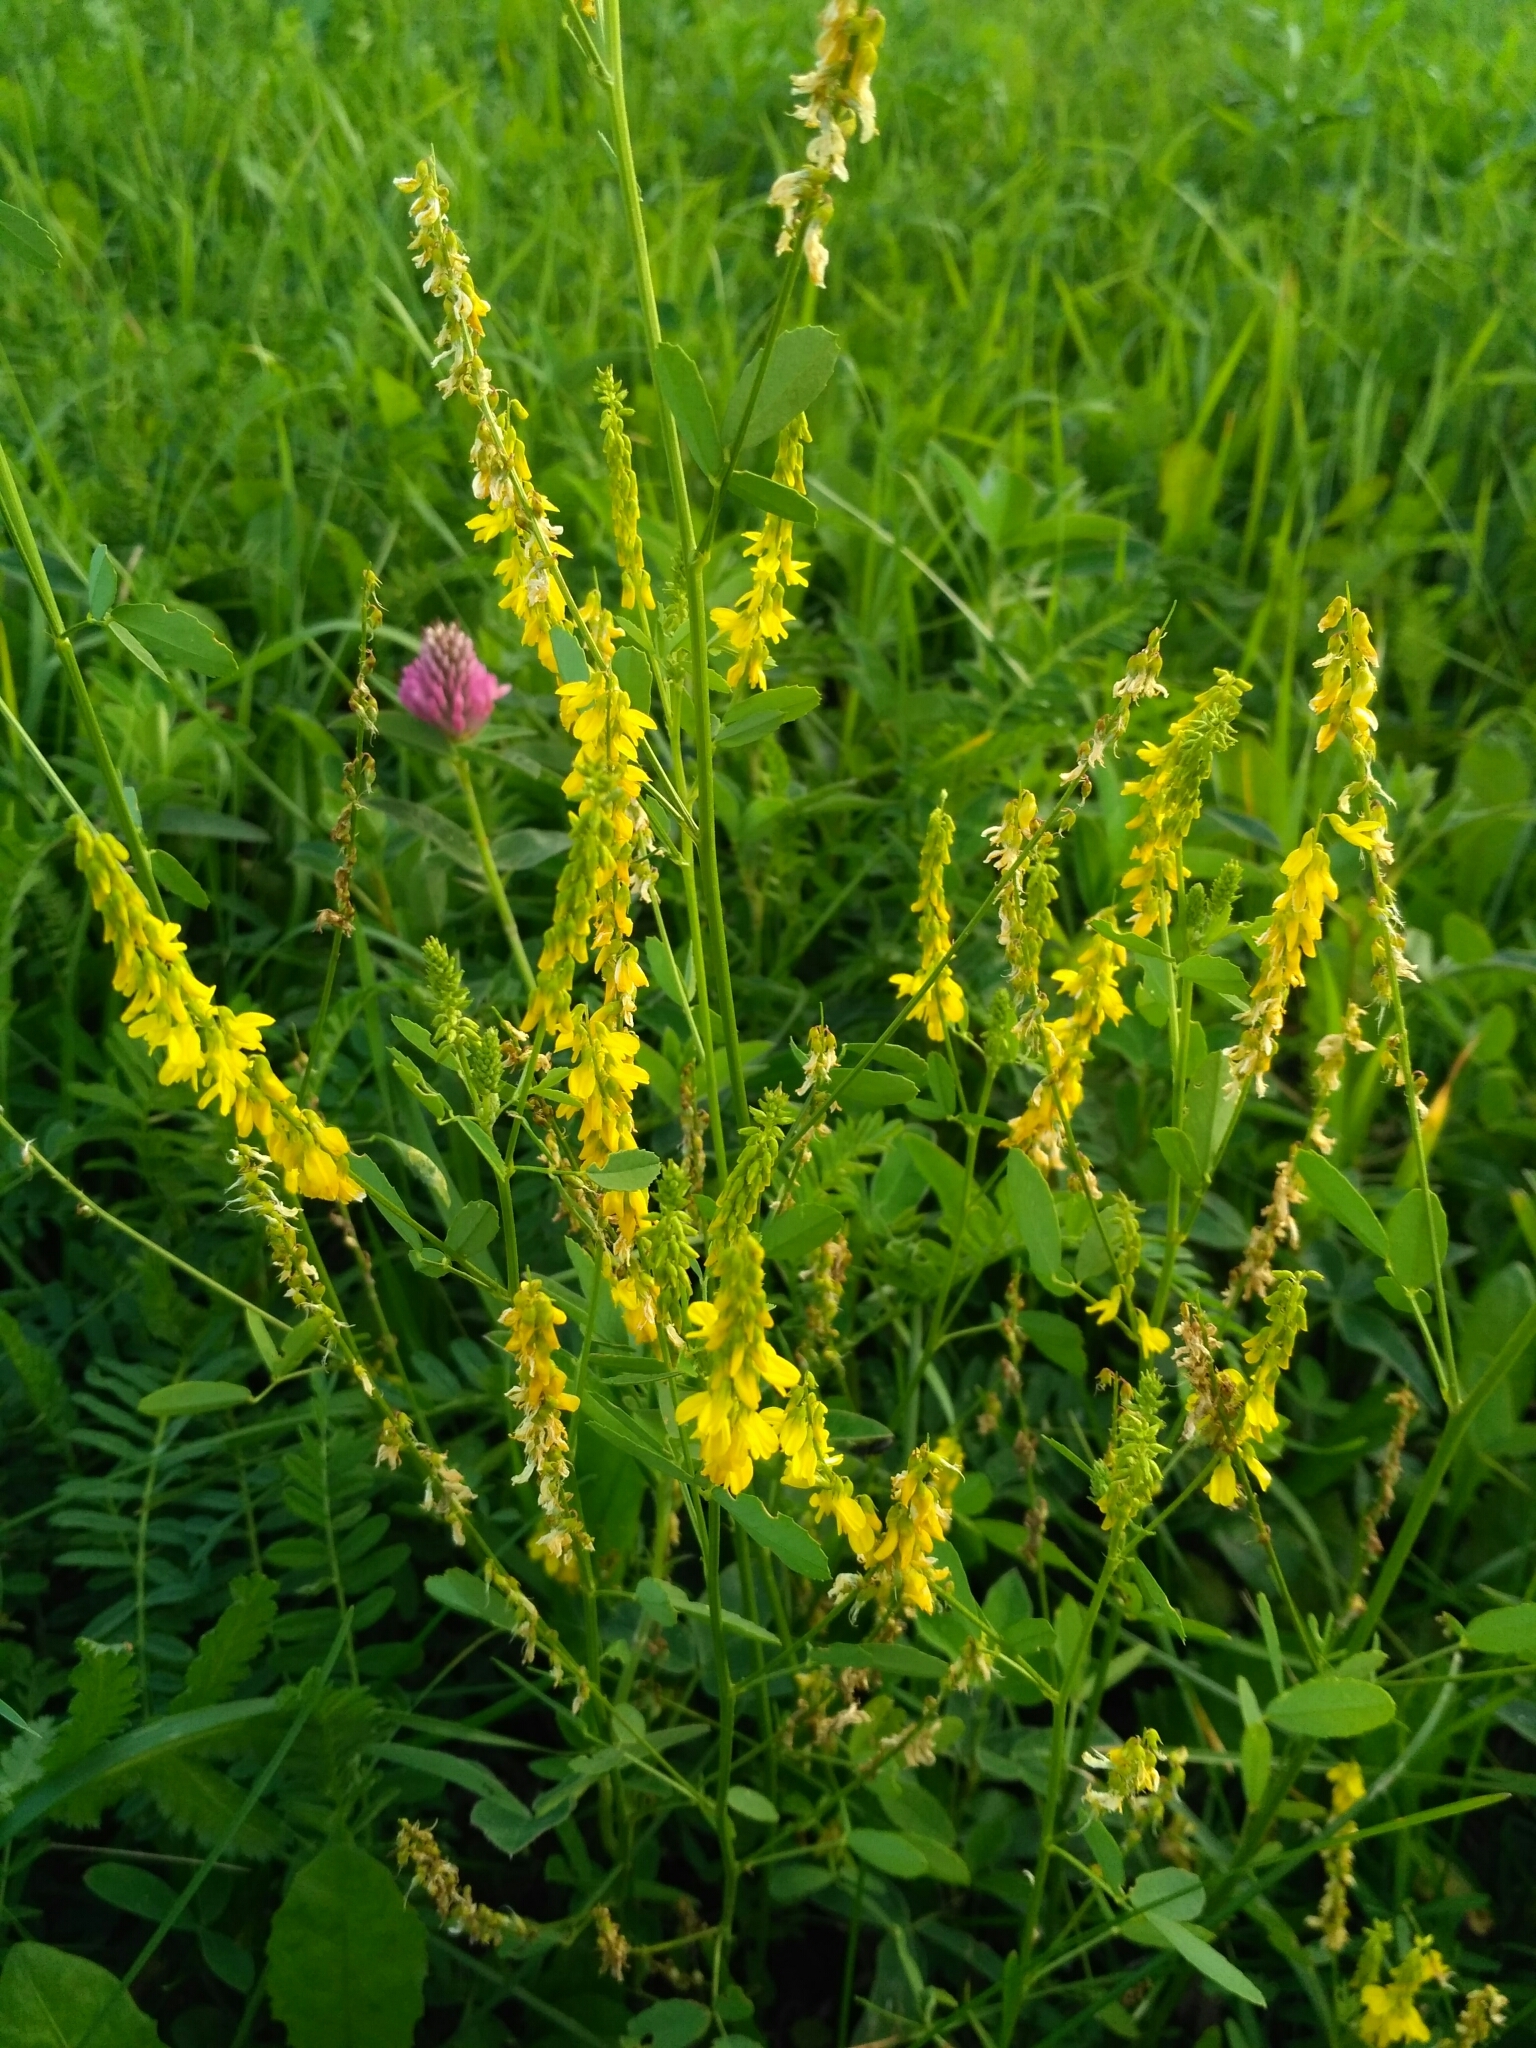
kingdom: Plantae
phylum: Tracheophyta
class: Magnoliopsida
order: Fabales
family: Fabaceae
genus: Melilotus
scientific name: Melilotus officinalis
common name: Sweetclover
